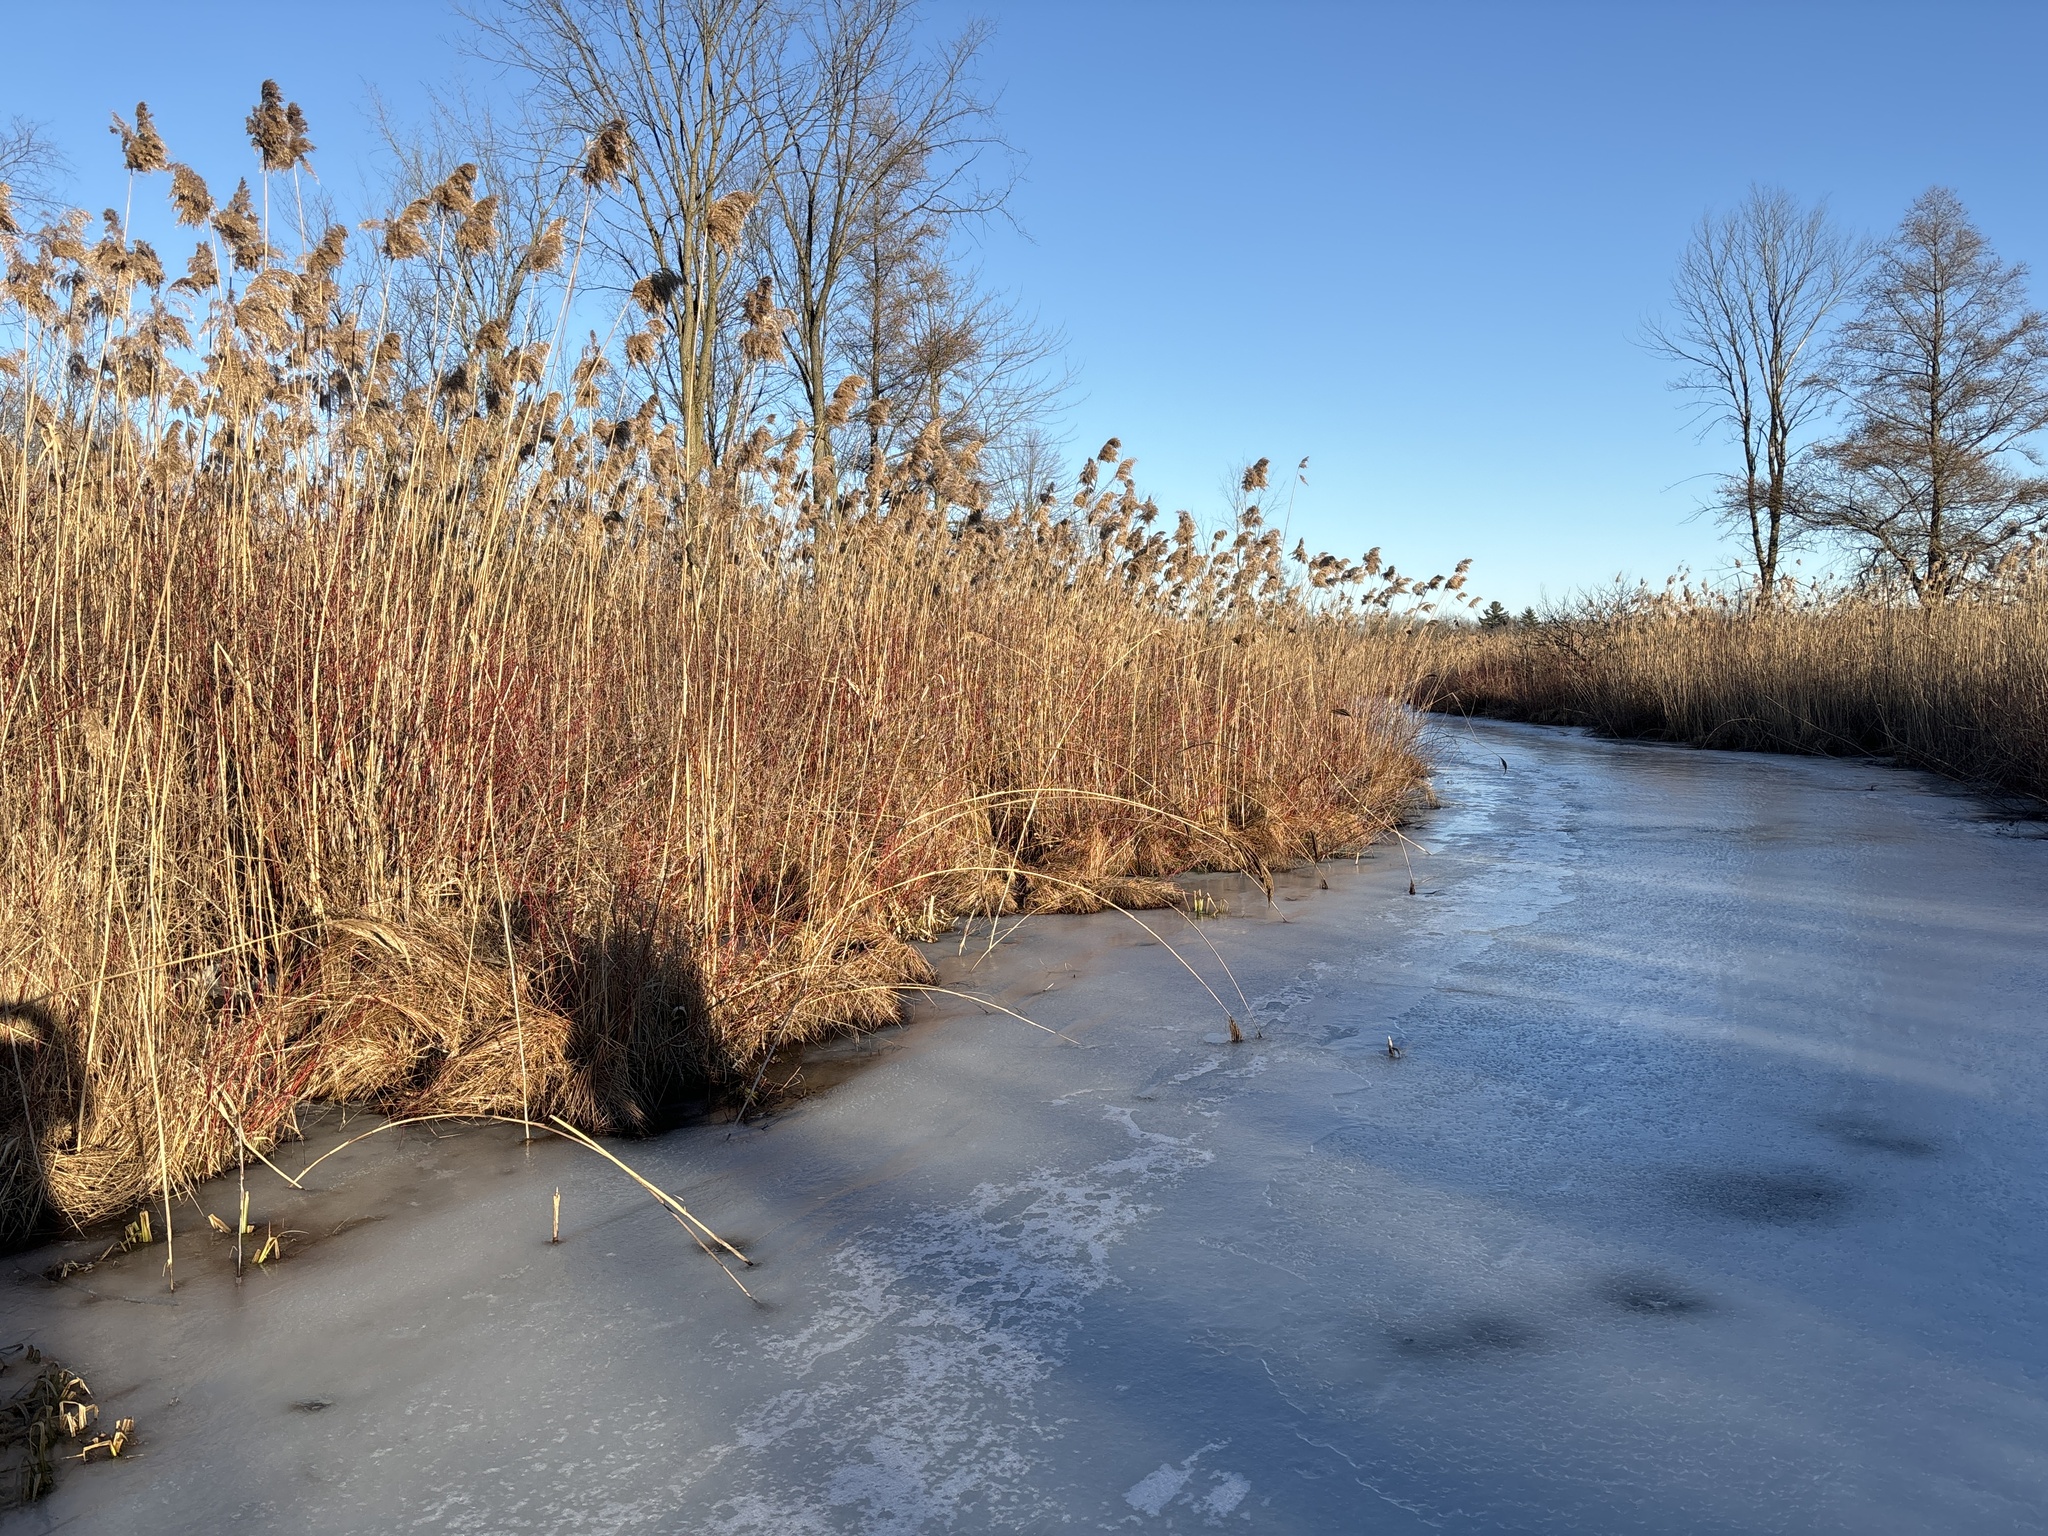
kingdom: Plantae
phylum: Tracheophyta
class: Liliopsida
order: Poales
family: Poaceae
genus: Phragmites
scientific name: Phragmites australis
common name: Common reed
